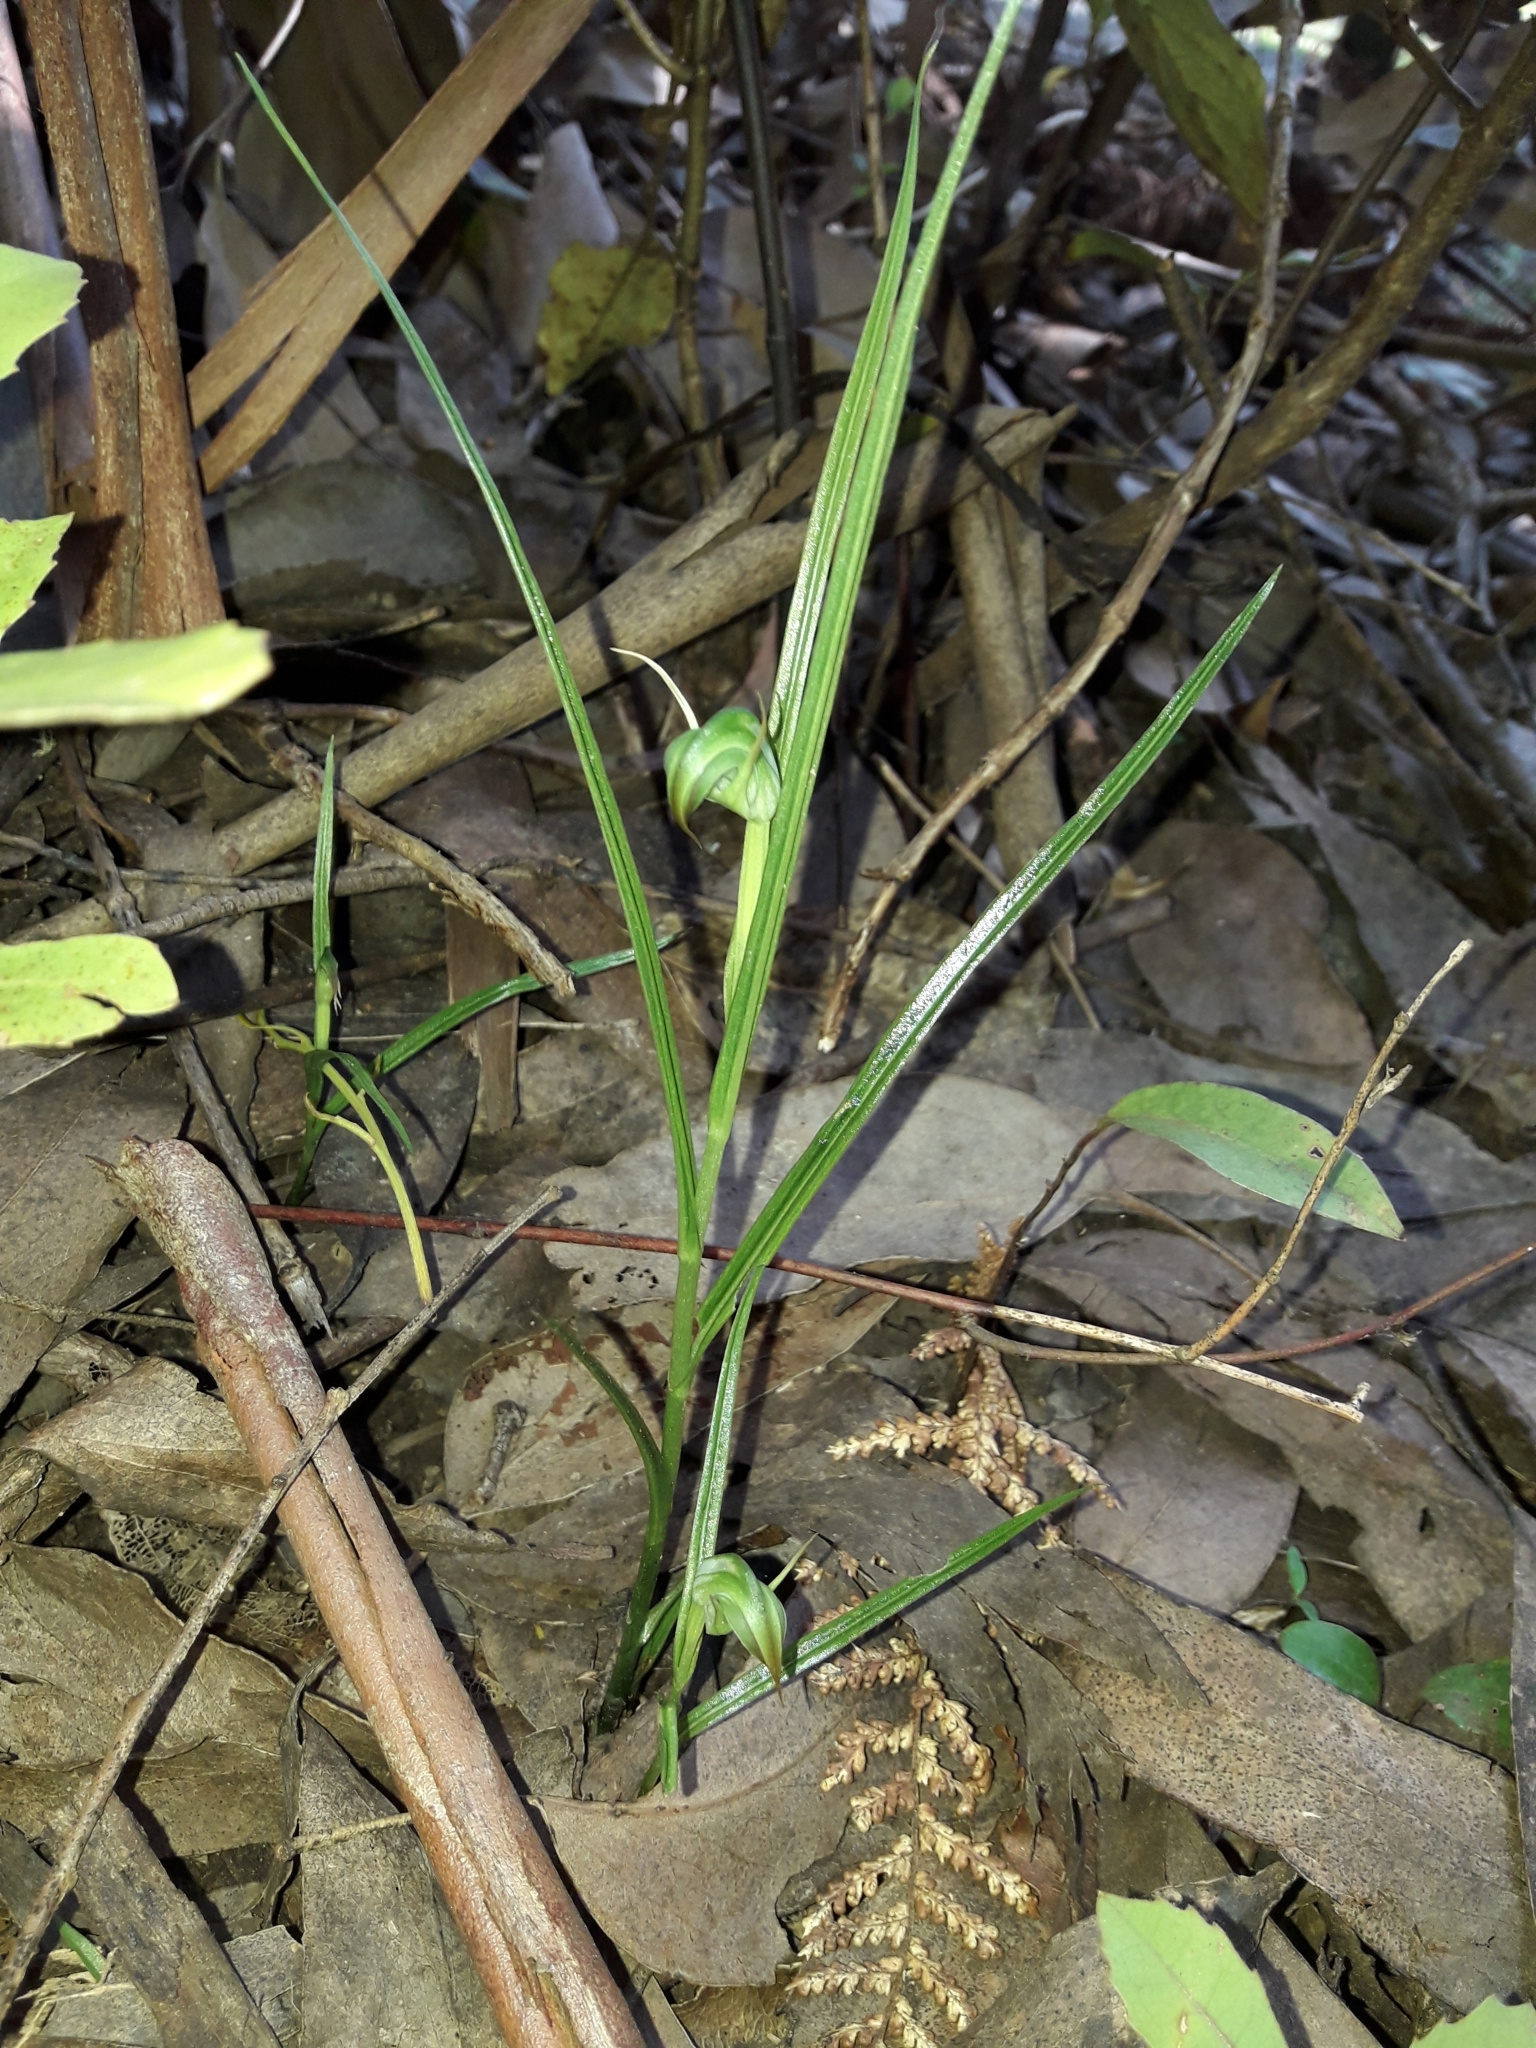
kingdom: Plantae
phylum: Tracheophyta
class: Liliopsida
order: Asparagales
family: Orchidaceae
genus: Pterostylis
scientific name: Pterostylis graminea
